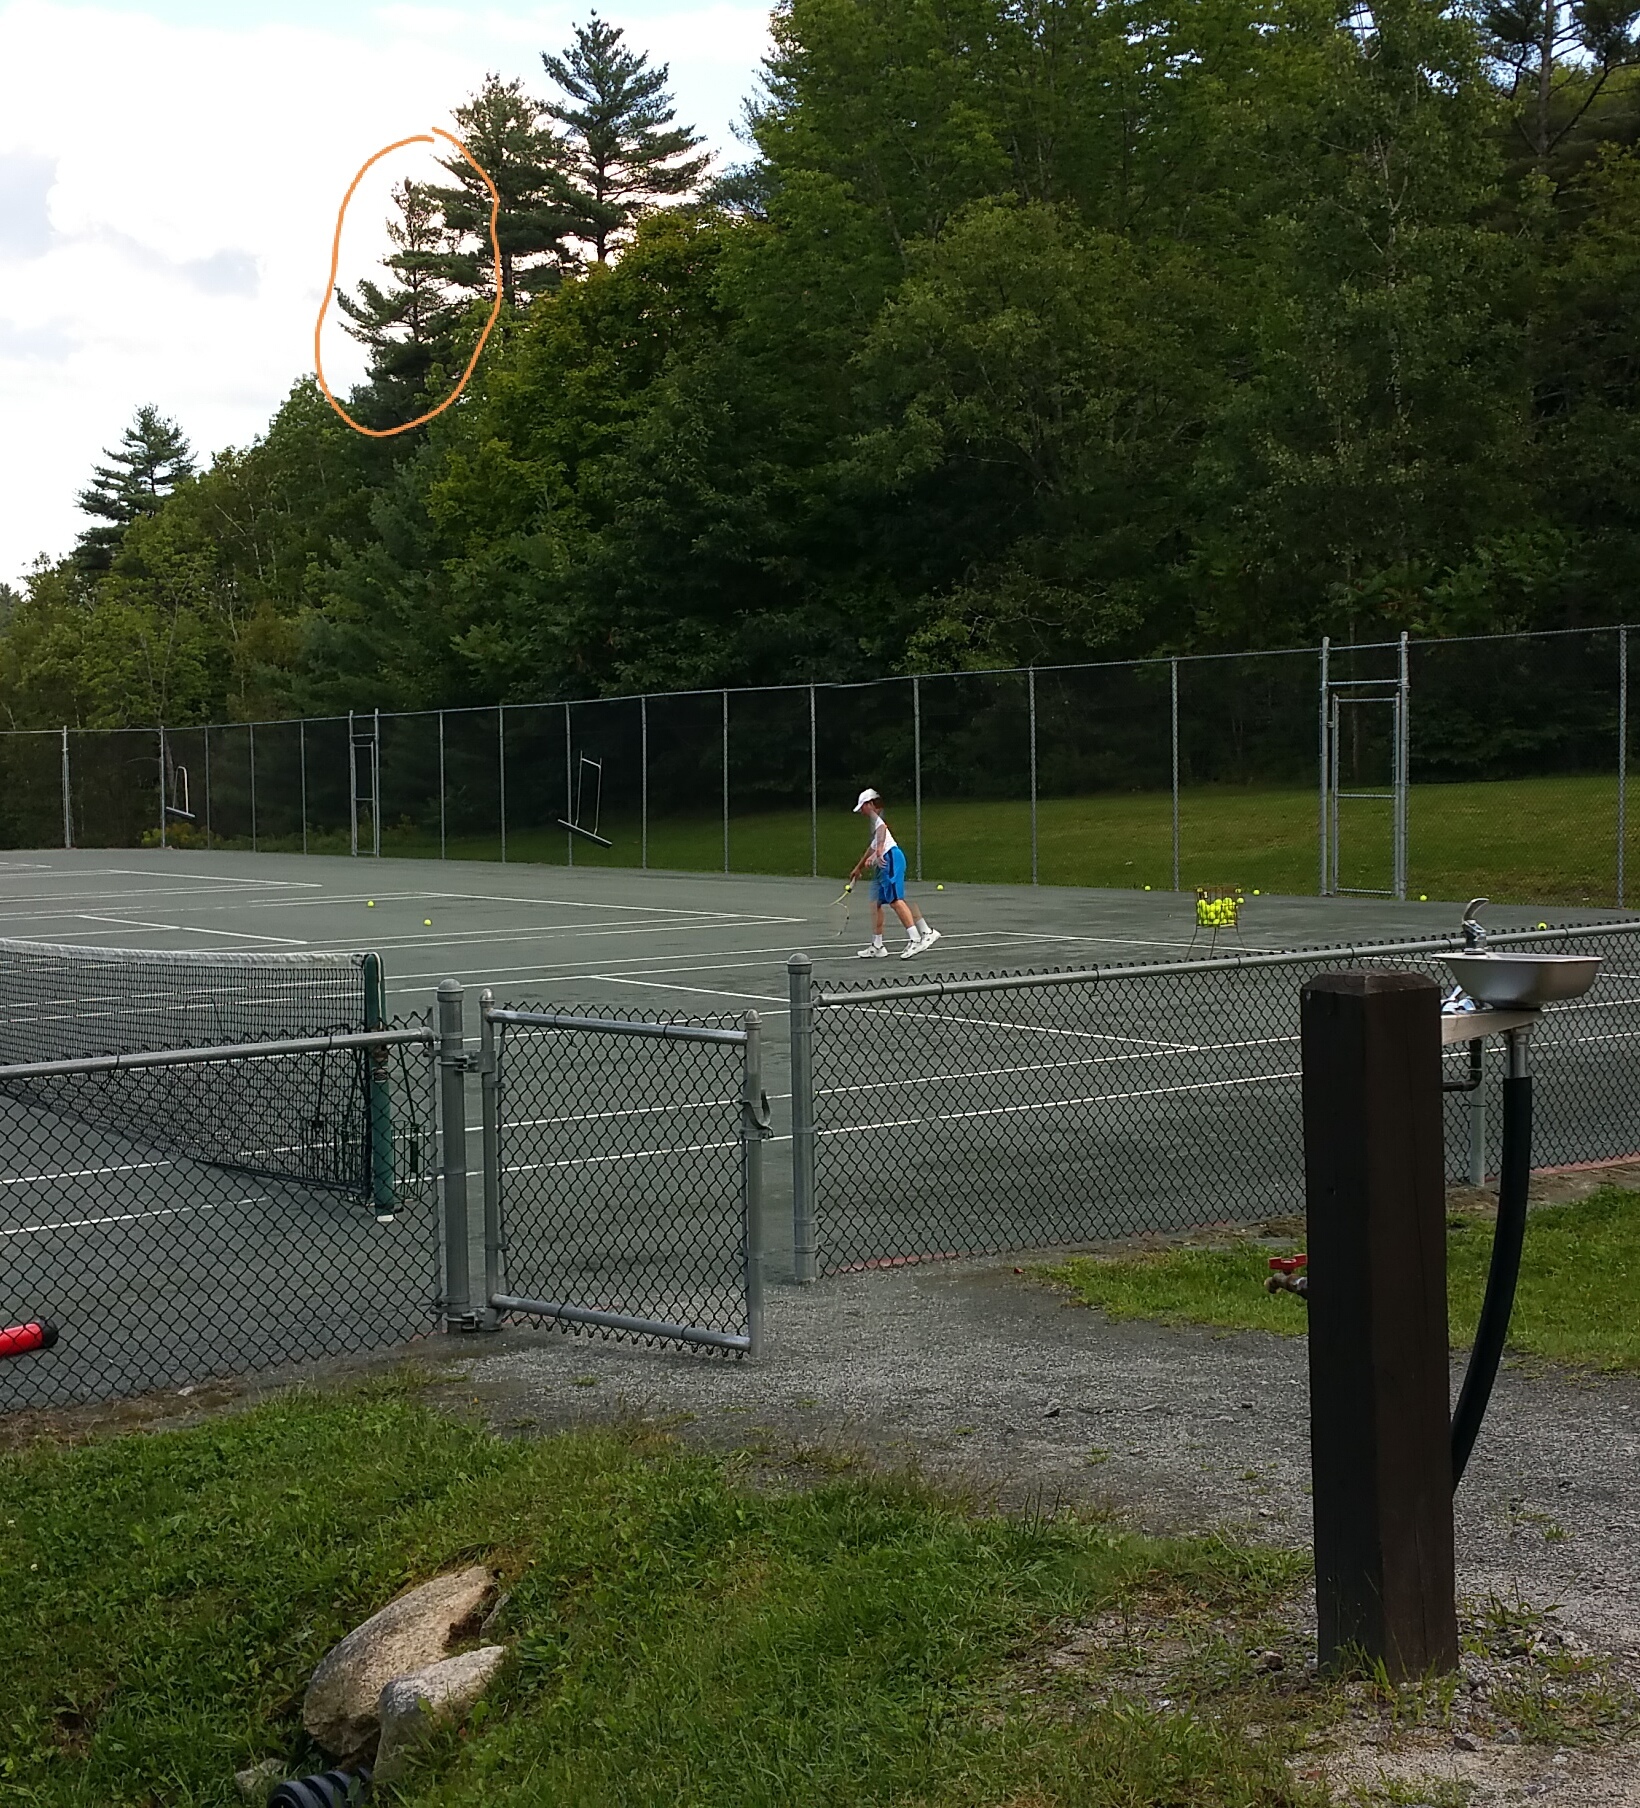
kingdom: Plantae
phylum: Tracheophyta
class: Pinopsida
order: Pinales
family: Pinaceae
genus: Pinus
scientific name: Pinus strobus
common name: Weymouth pine
